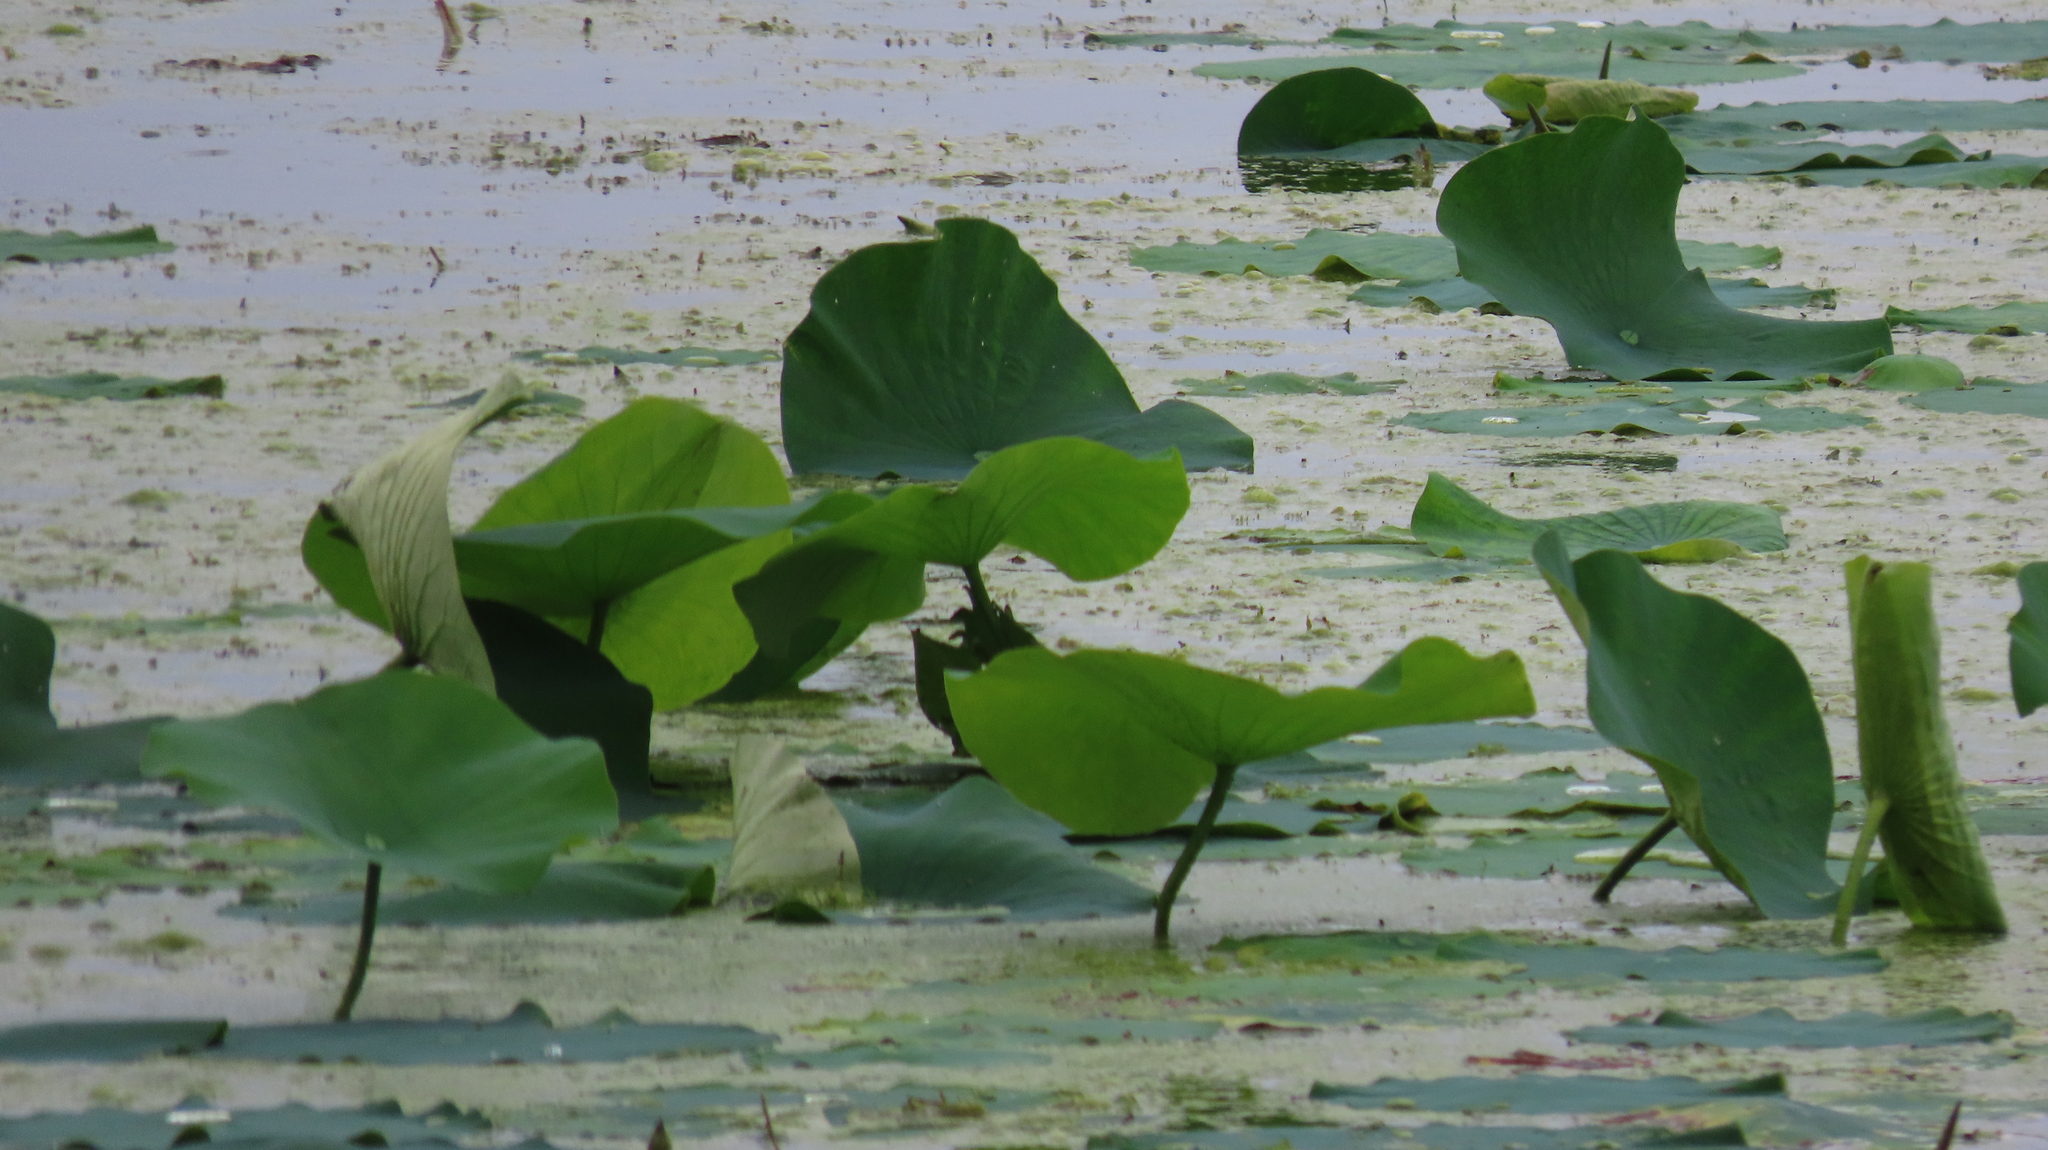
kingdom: Plantae
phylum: Tracheophyta
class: Magnoliopsida
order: Proteales
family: Nelumbonaceae
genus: Nelumbo
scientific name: Nelumbo lutea
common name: American lotus
